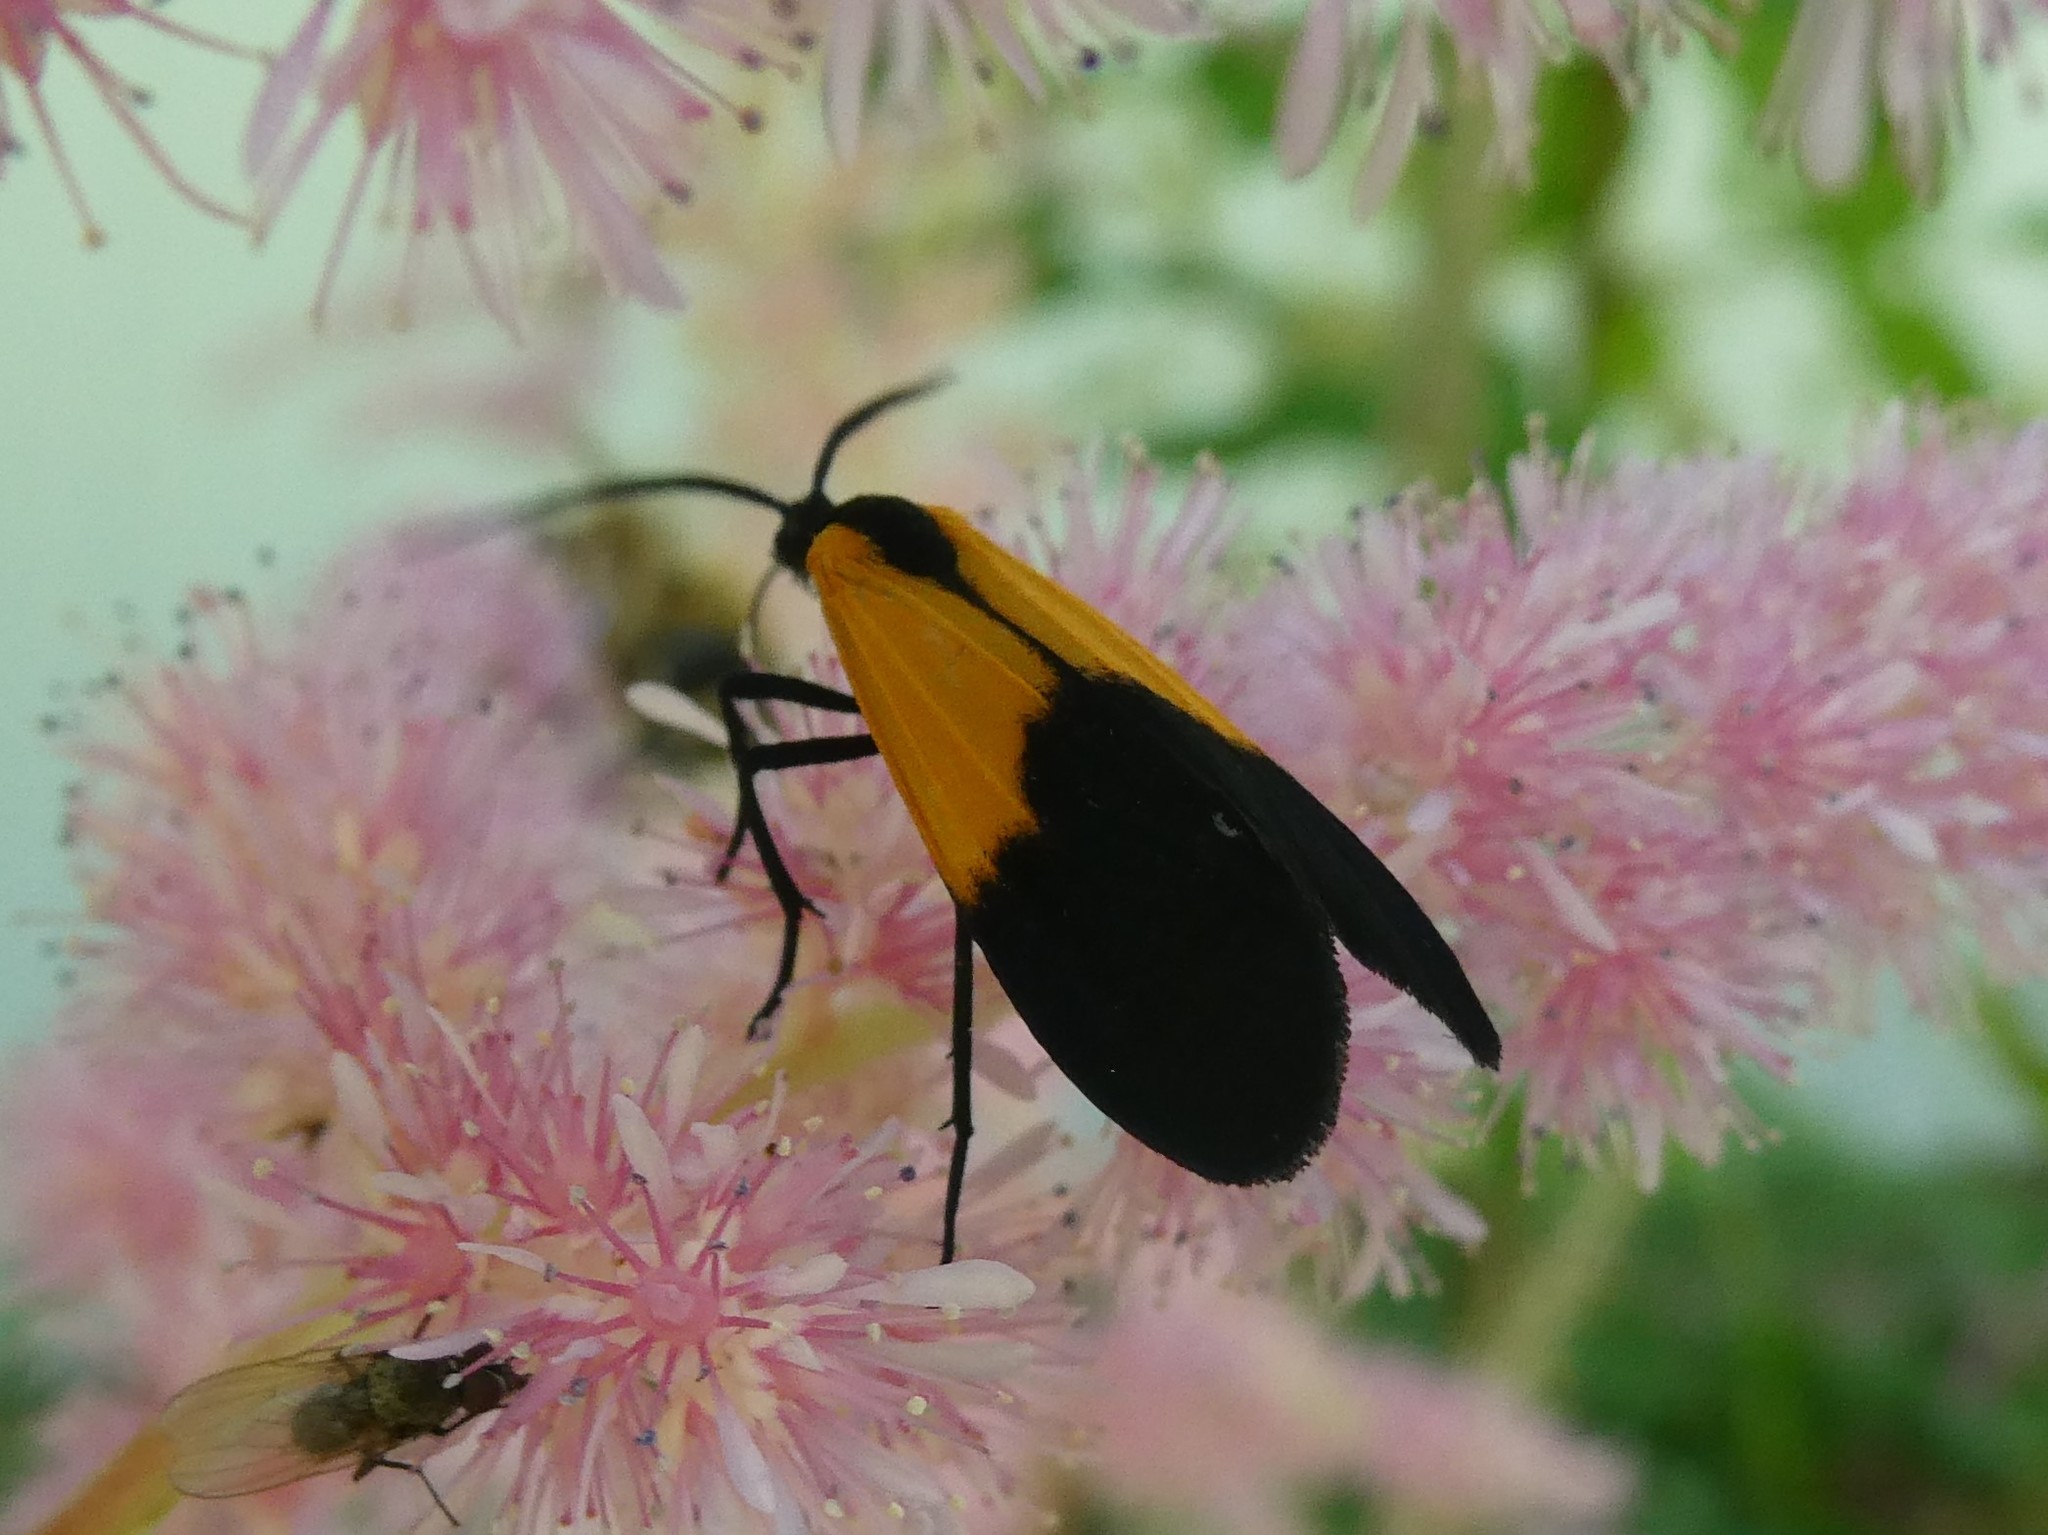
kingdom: Animalia
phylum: Arthropoda
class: Insecta
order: Lepidoptera
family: Erebidae
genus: Lycomorpha
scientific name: Lycomorpha pholus
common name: Black-and-yellow lichen moth
